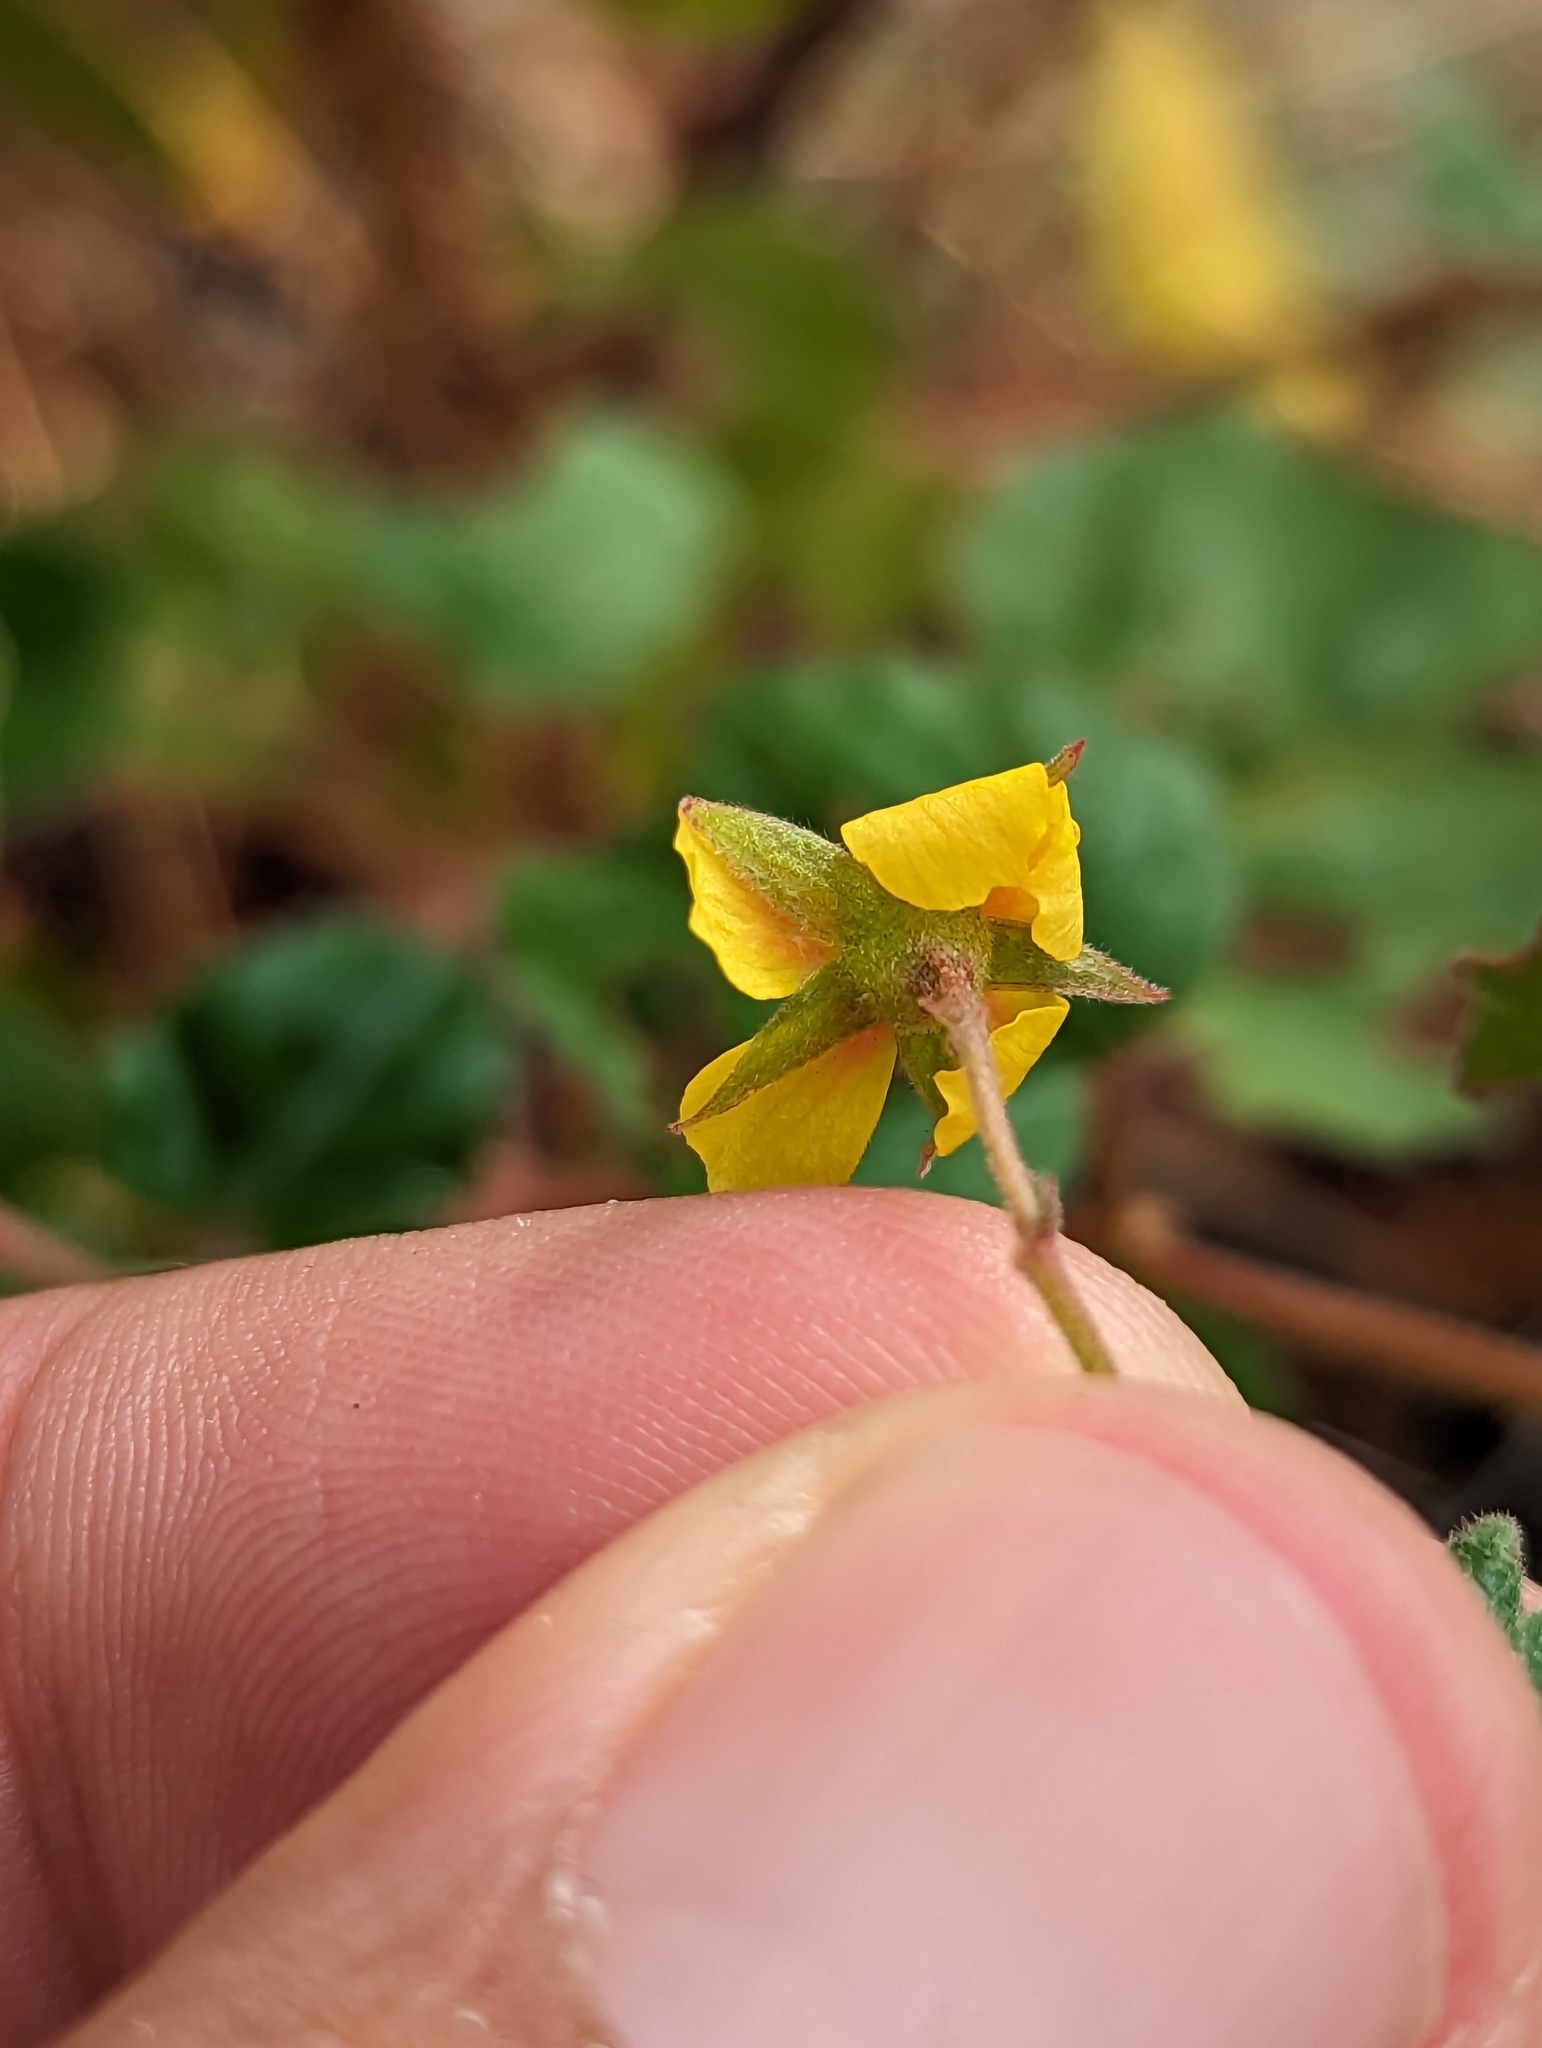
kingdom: Plantae
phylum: Tracheophyta
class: Magnoliopsida
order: Malvales
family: Malvaceae
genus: Hermannia
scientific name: Hermannia palmeri
